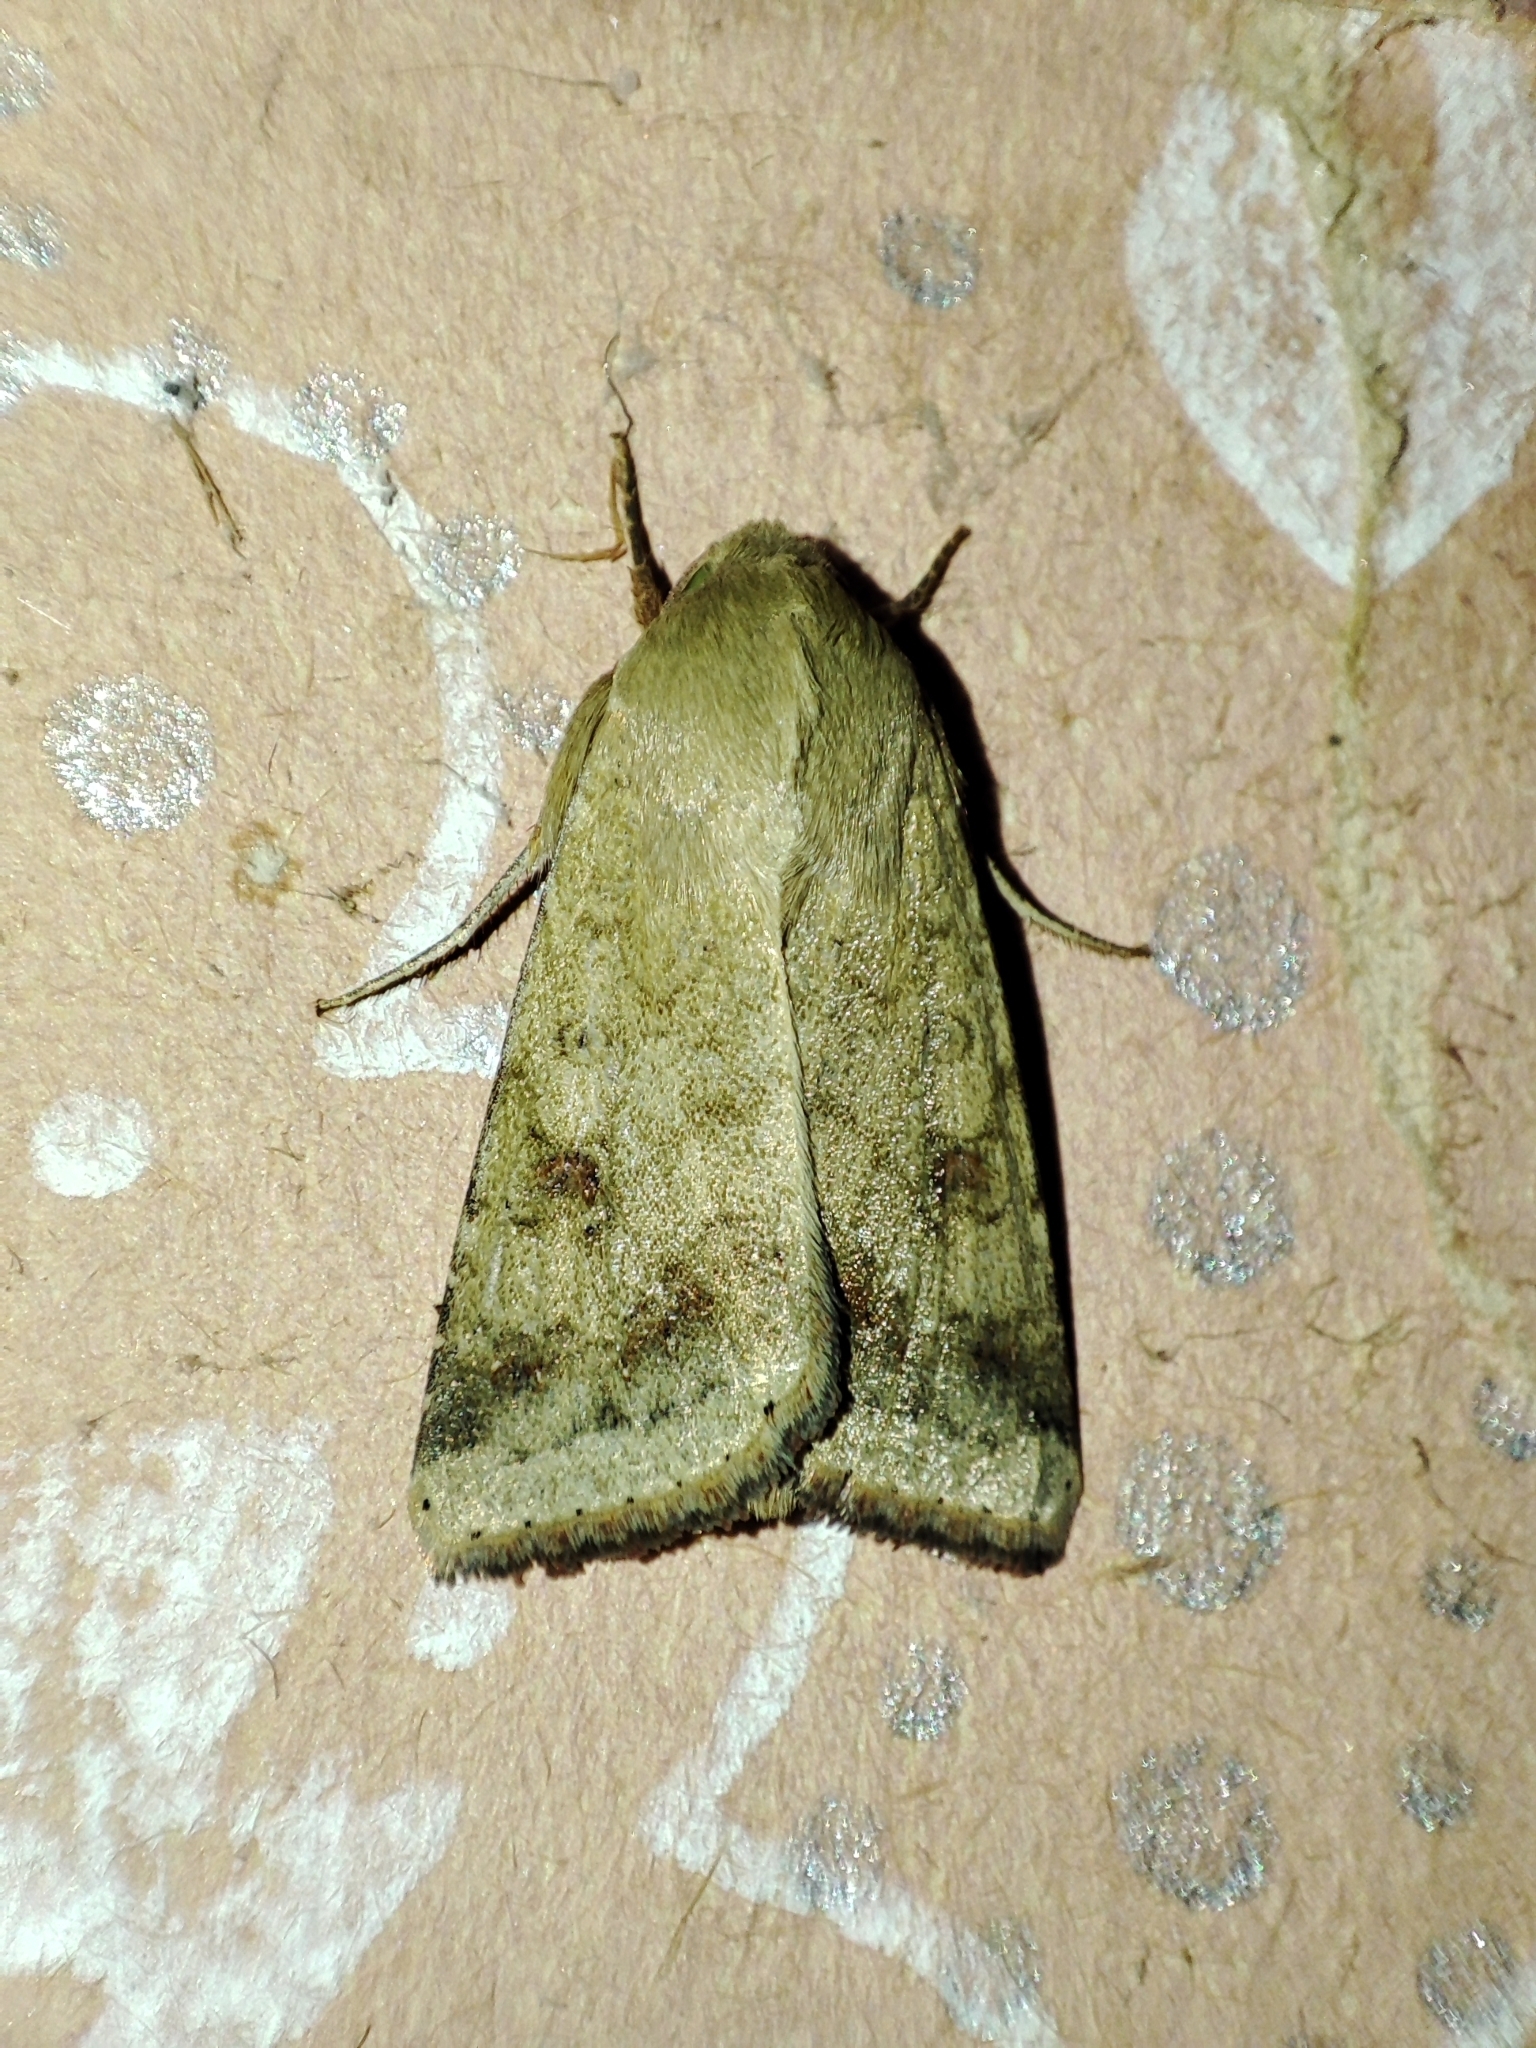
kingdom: Animalia
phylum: Arthropoda
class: Insecta
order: Lepidoptera
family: Noctuidae
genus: Helicoverpa
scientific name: Helicoverpa armigera
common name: Cotton bollworm
